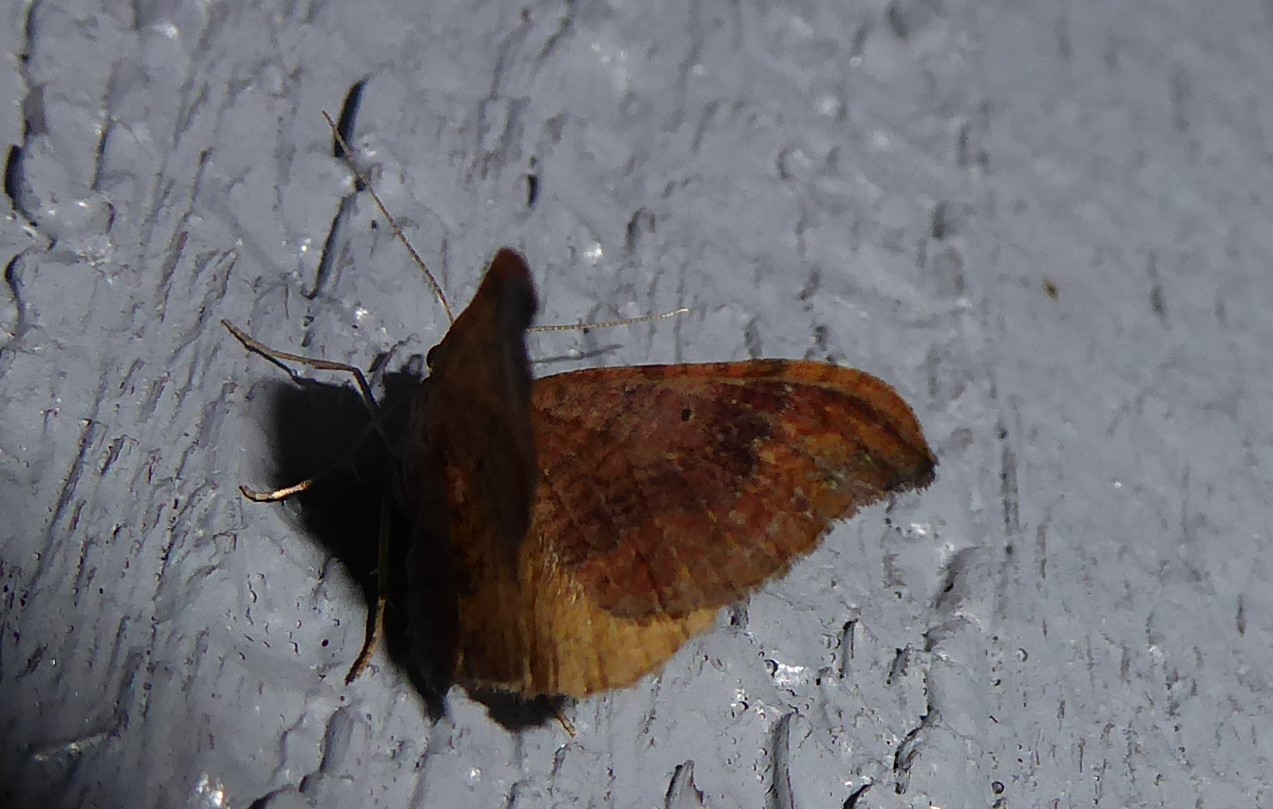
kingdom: Animalia
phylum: Arthropoda
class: Insecta
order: Lepidoptera
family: Geometridae
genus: Homodotis
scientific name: Homodotis megaspilata
